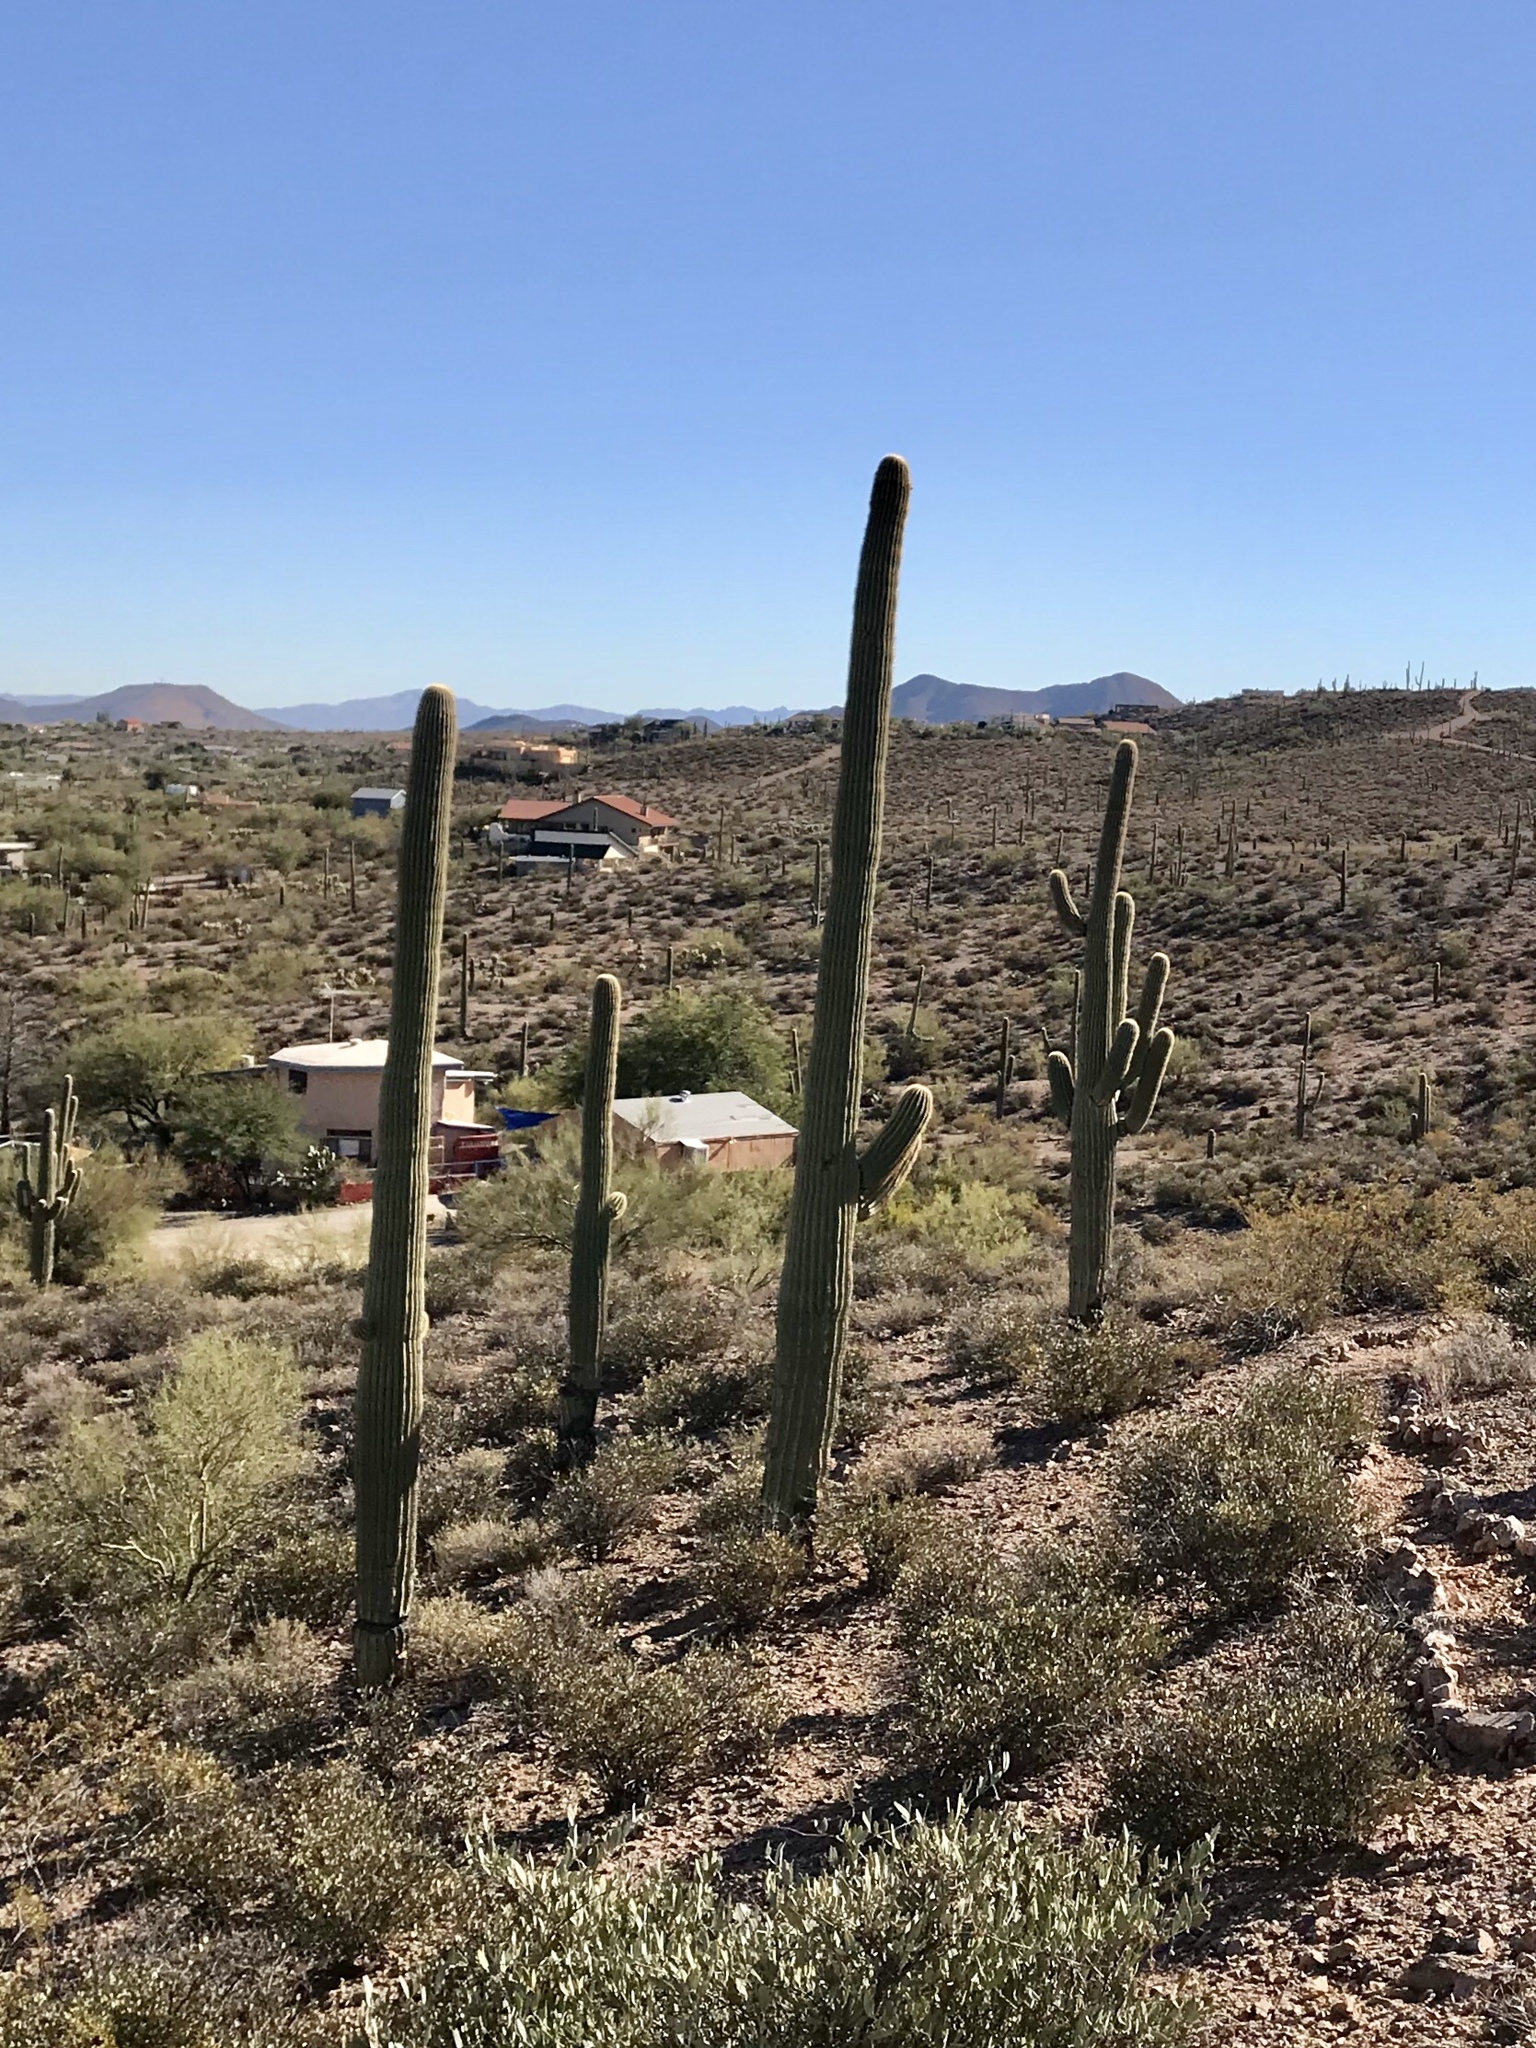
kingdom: Plantae
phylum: Tracheophyta
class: Magnoliopsida
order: Caryophyllales
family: Cactaceae
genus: Carnegiea
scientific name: Carnegiea gigantea
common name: Saguaro
